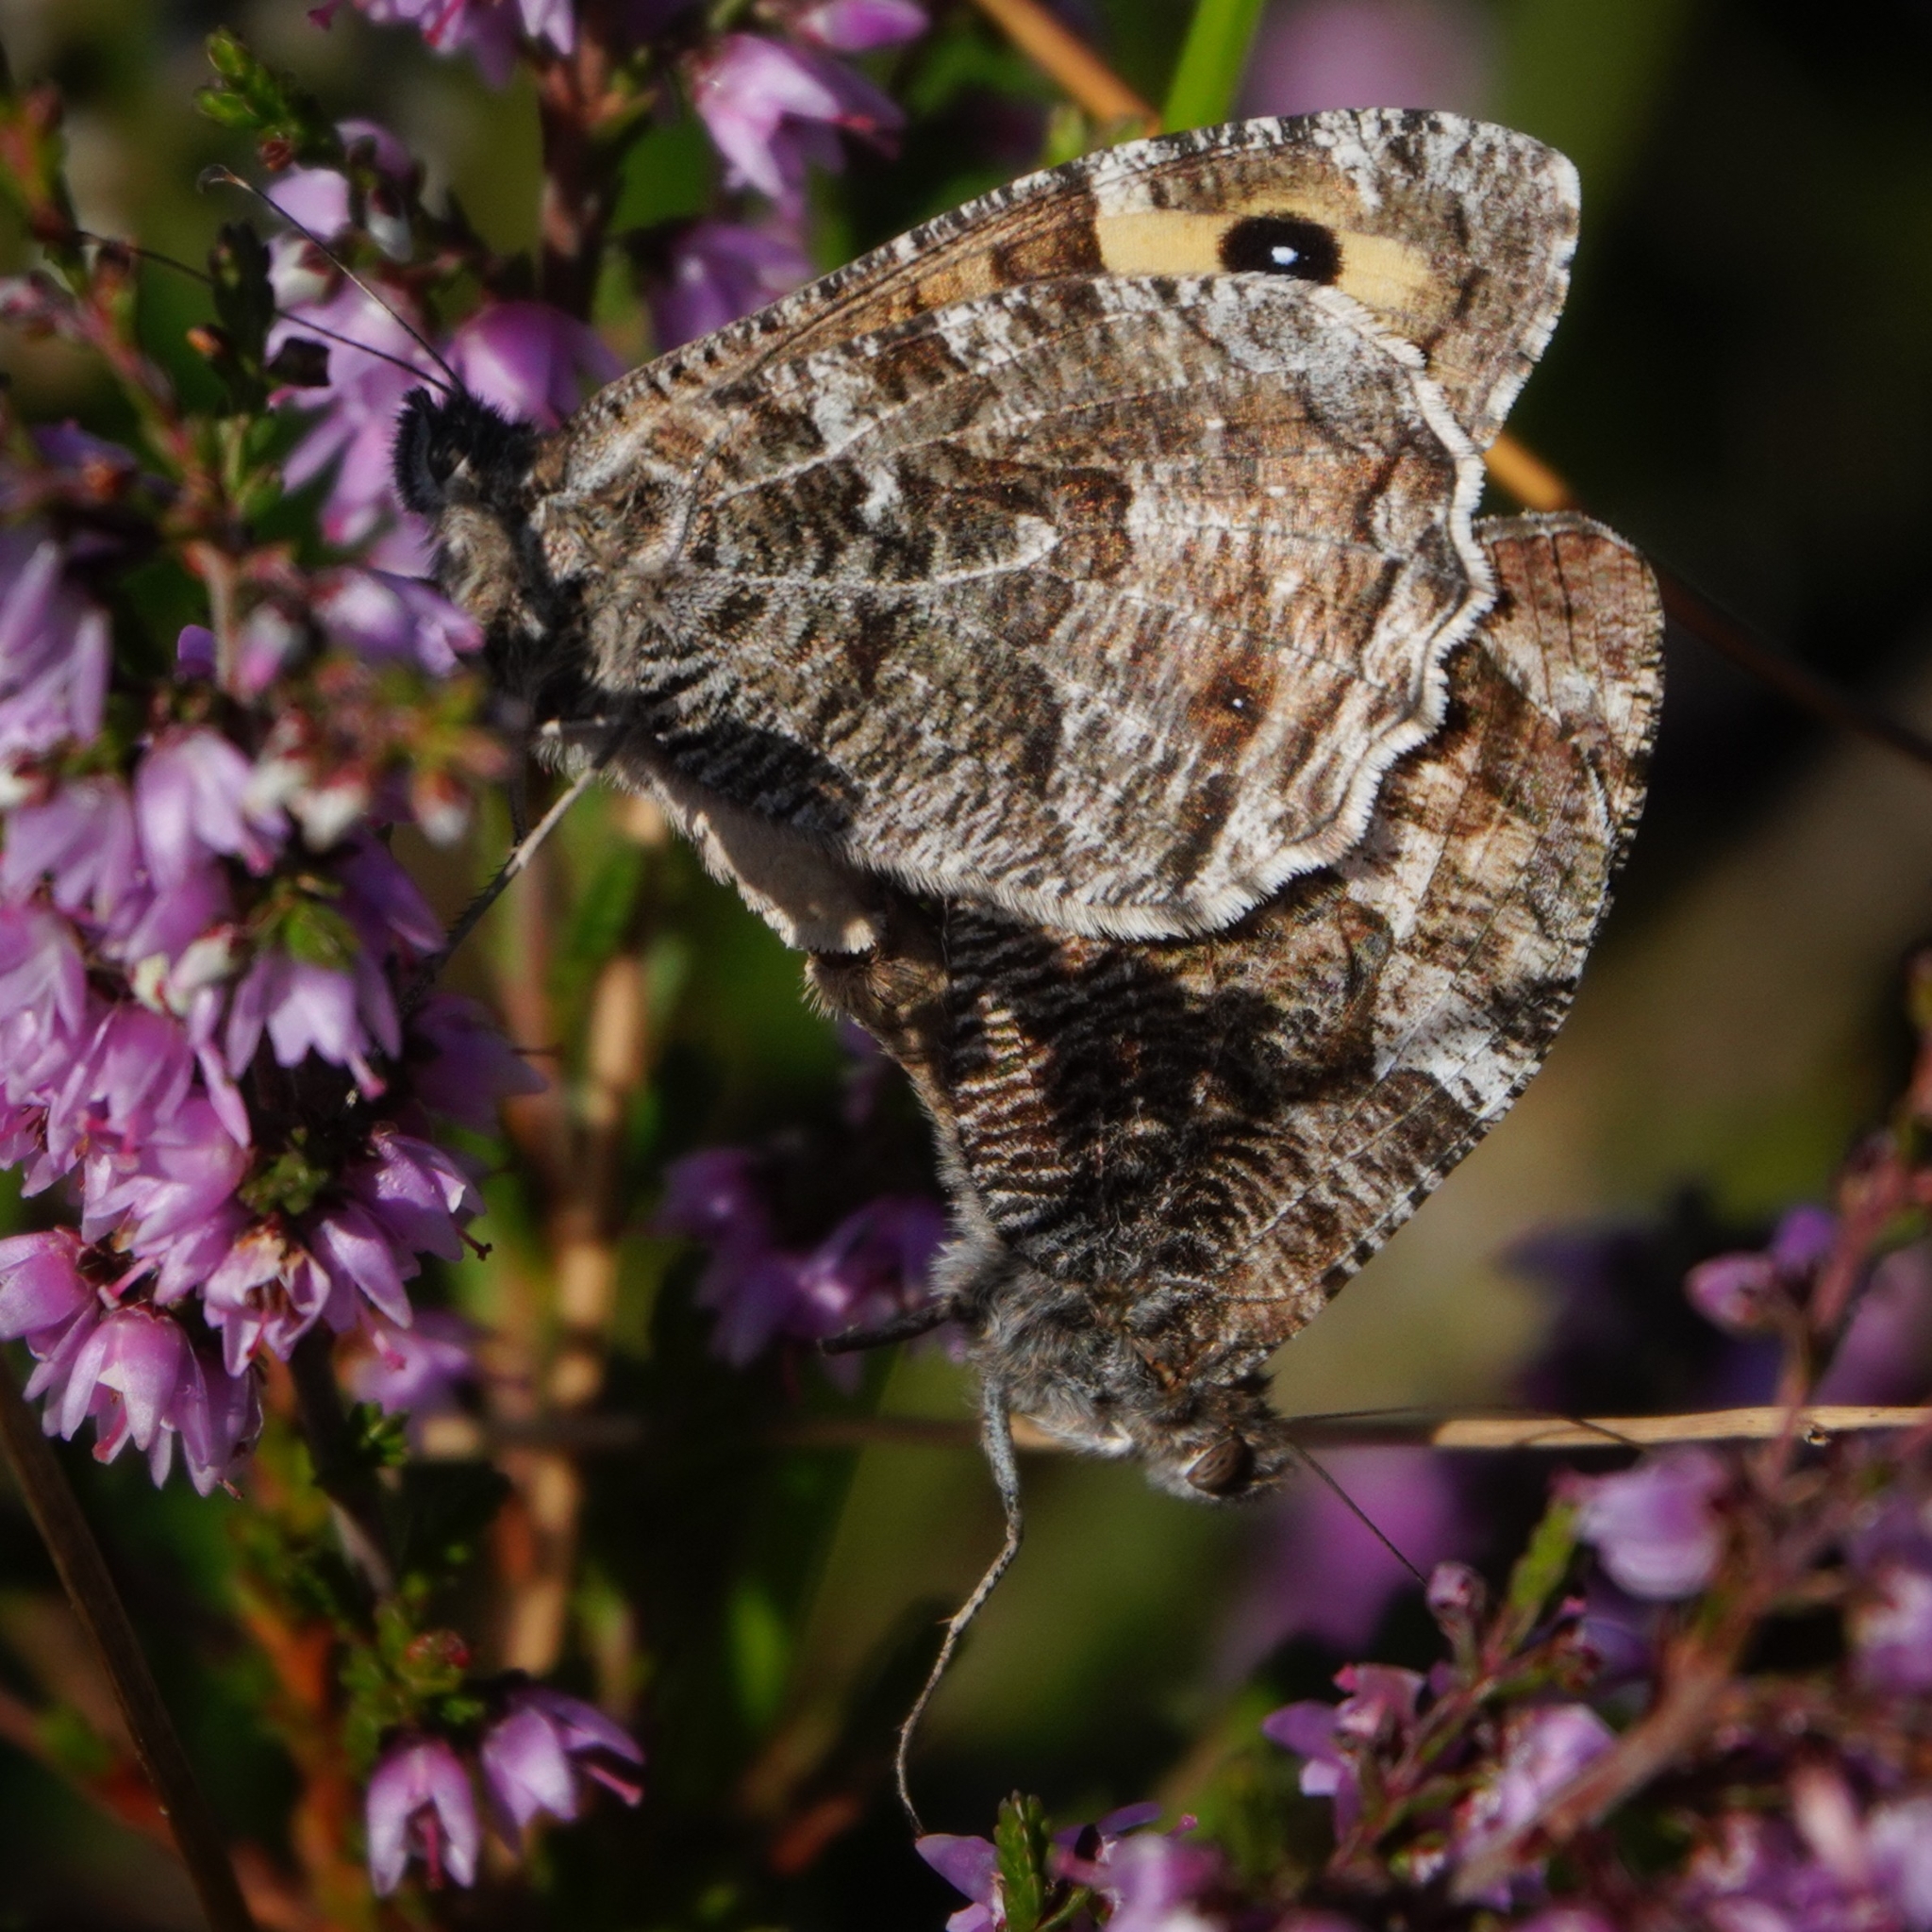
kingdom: Animalia
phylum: Arthropoda
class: Insecta
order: Lepidoptera
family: Nymphalidae
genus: Hipparchia
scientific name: Hipparchia semele
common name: Grayling
